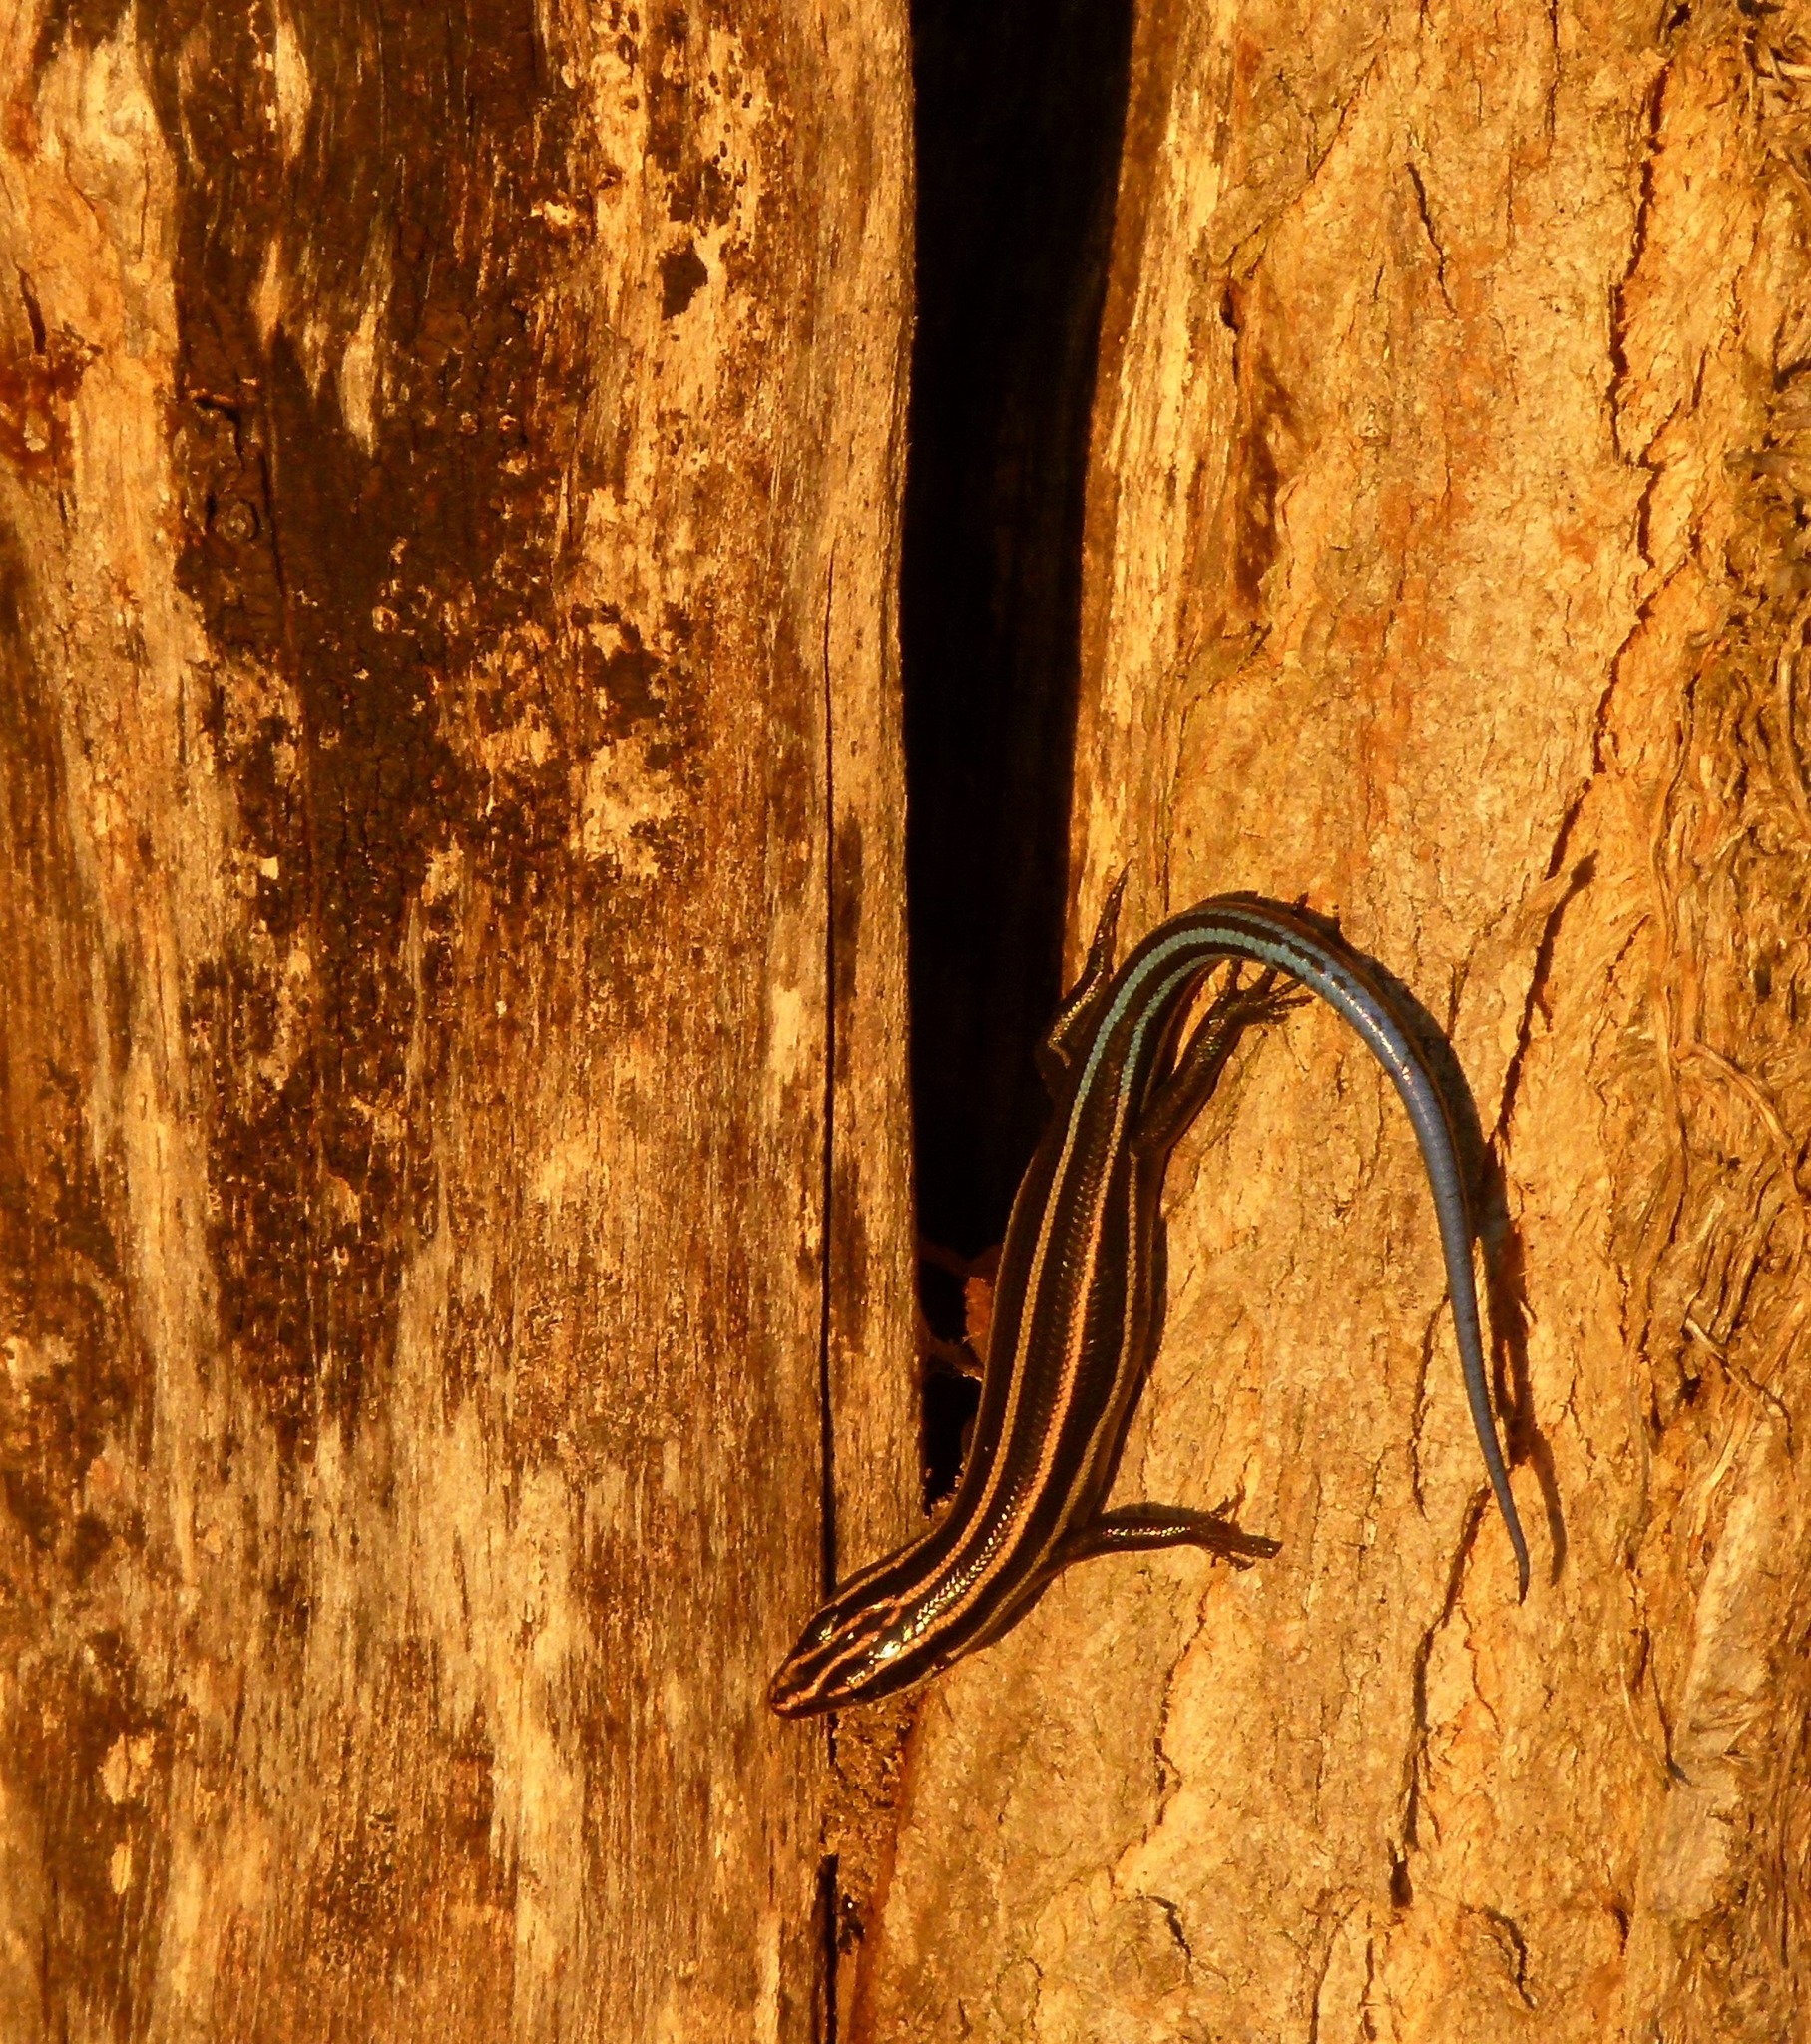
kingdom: Animalia
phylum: Chordata
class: Squamata
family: Scincidae
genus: Plestiodon
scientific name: Plestiodon fasciatus
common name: Five-lined skink
